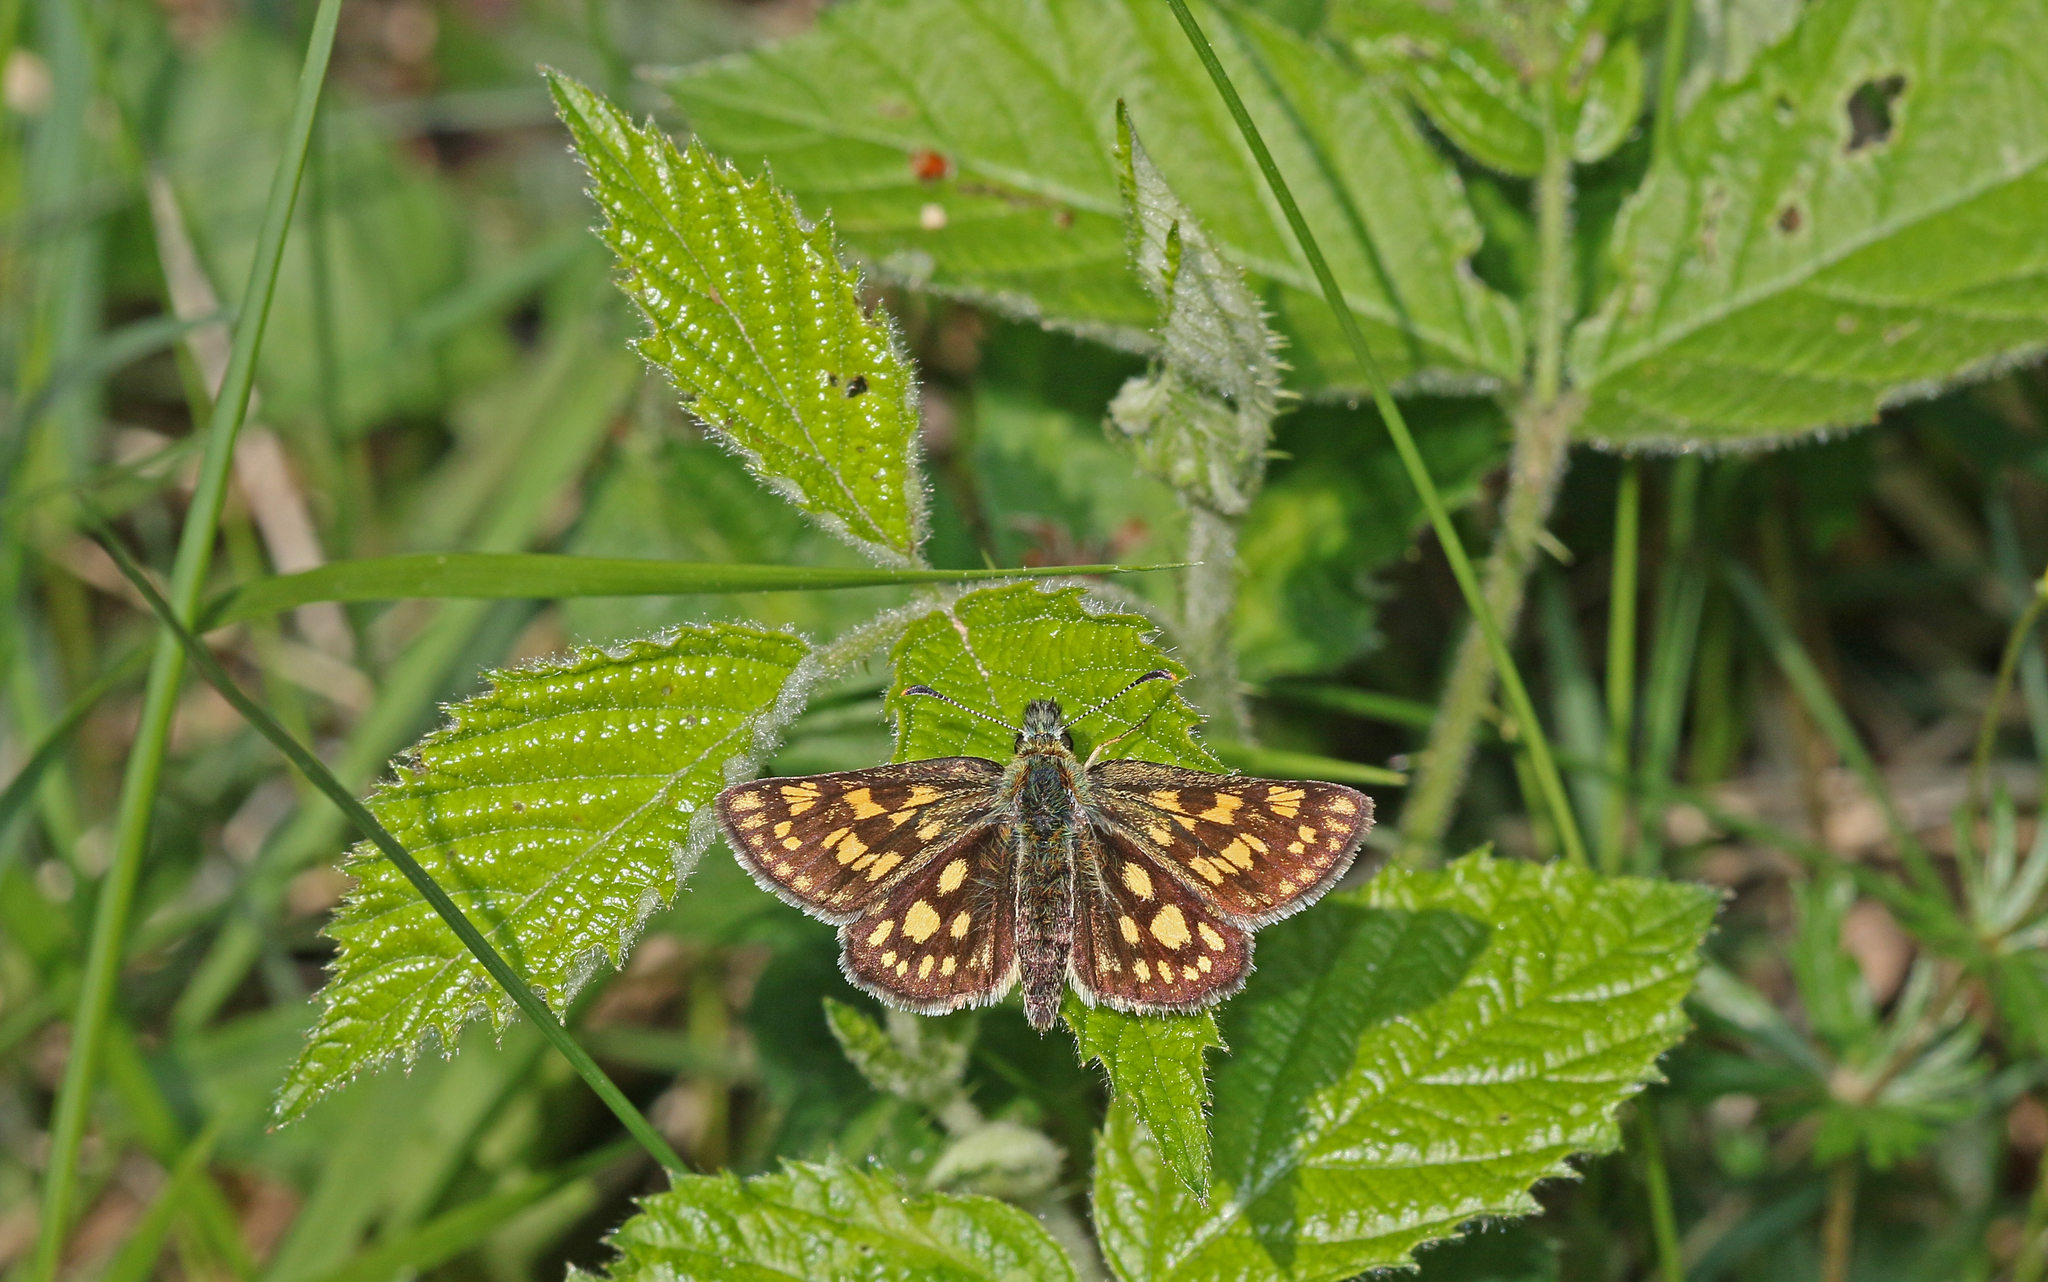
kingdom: Animalia
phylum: Arthropoda
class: Insecta
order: Lepidoptera
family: Hesperiidae
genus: Carterocephalus
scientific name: Carterocephalus palaemon
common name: Chequered skipper
